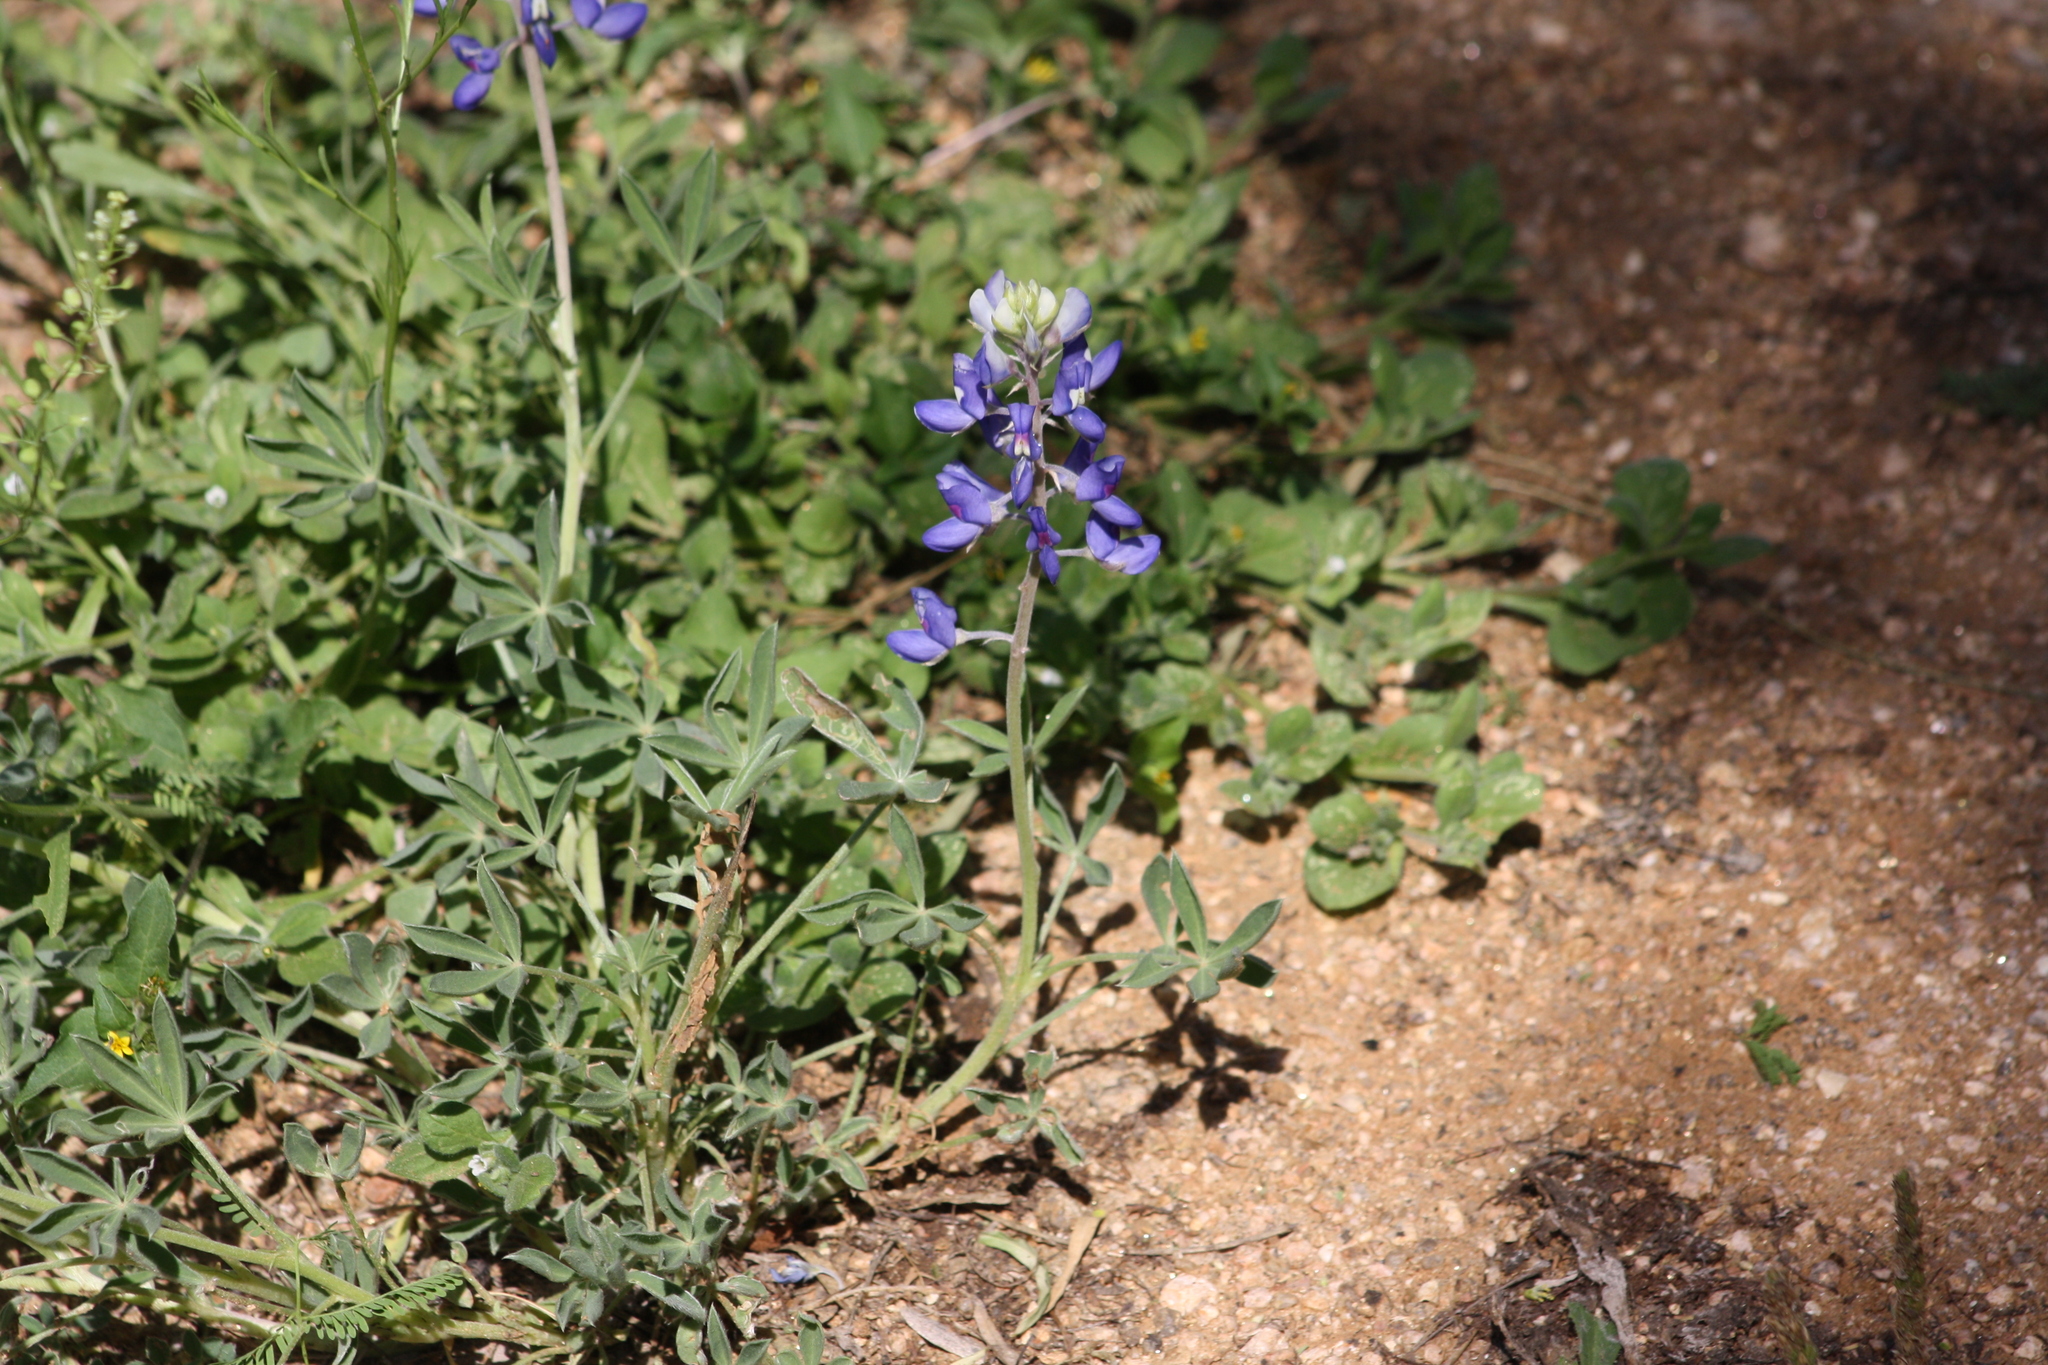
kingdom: Plantae
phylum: Tracheophyta
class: Magnoliopsida
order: Fabales
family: Fabaceae
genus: Lupinus
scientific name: Lupinus texensis
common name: Texas bluebonnet
